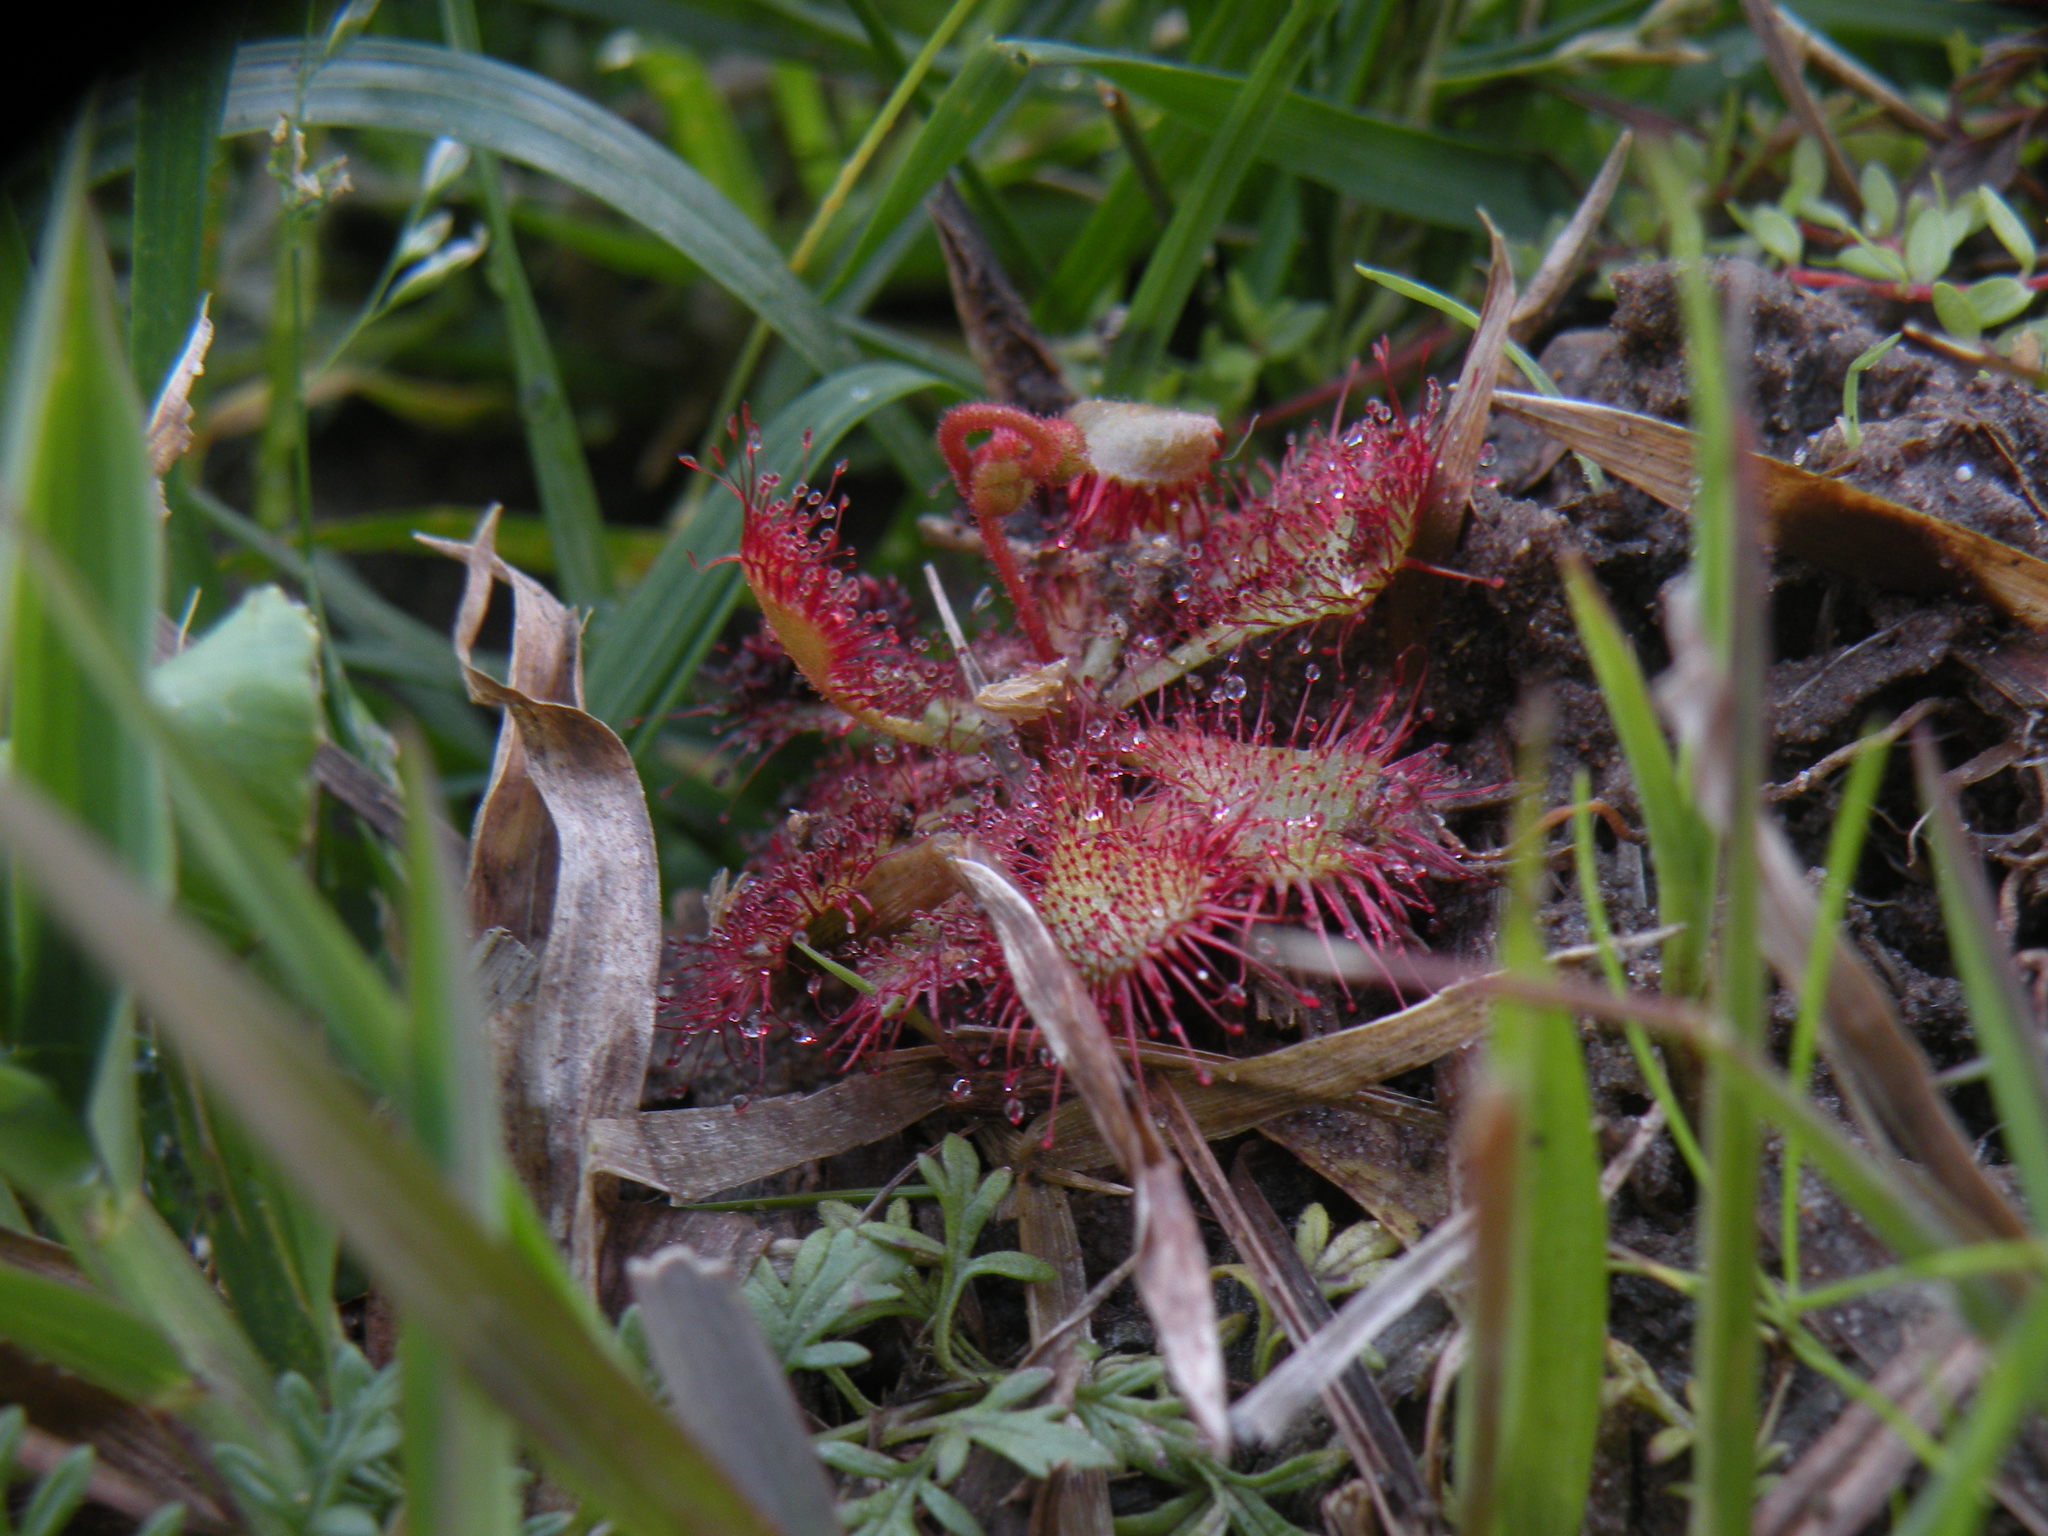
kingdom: Plantae
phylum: Tracheophyta
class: Magnoliopsida
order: Caryophyllales
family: Droseraceae
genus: Drosera
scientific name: Drosera brevifolia
